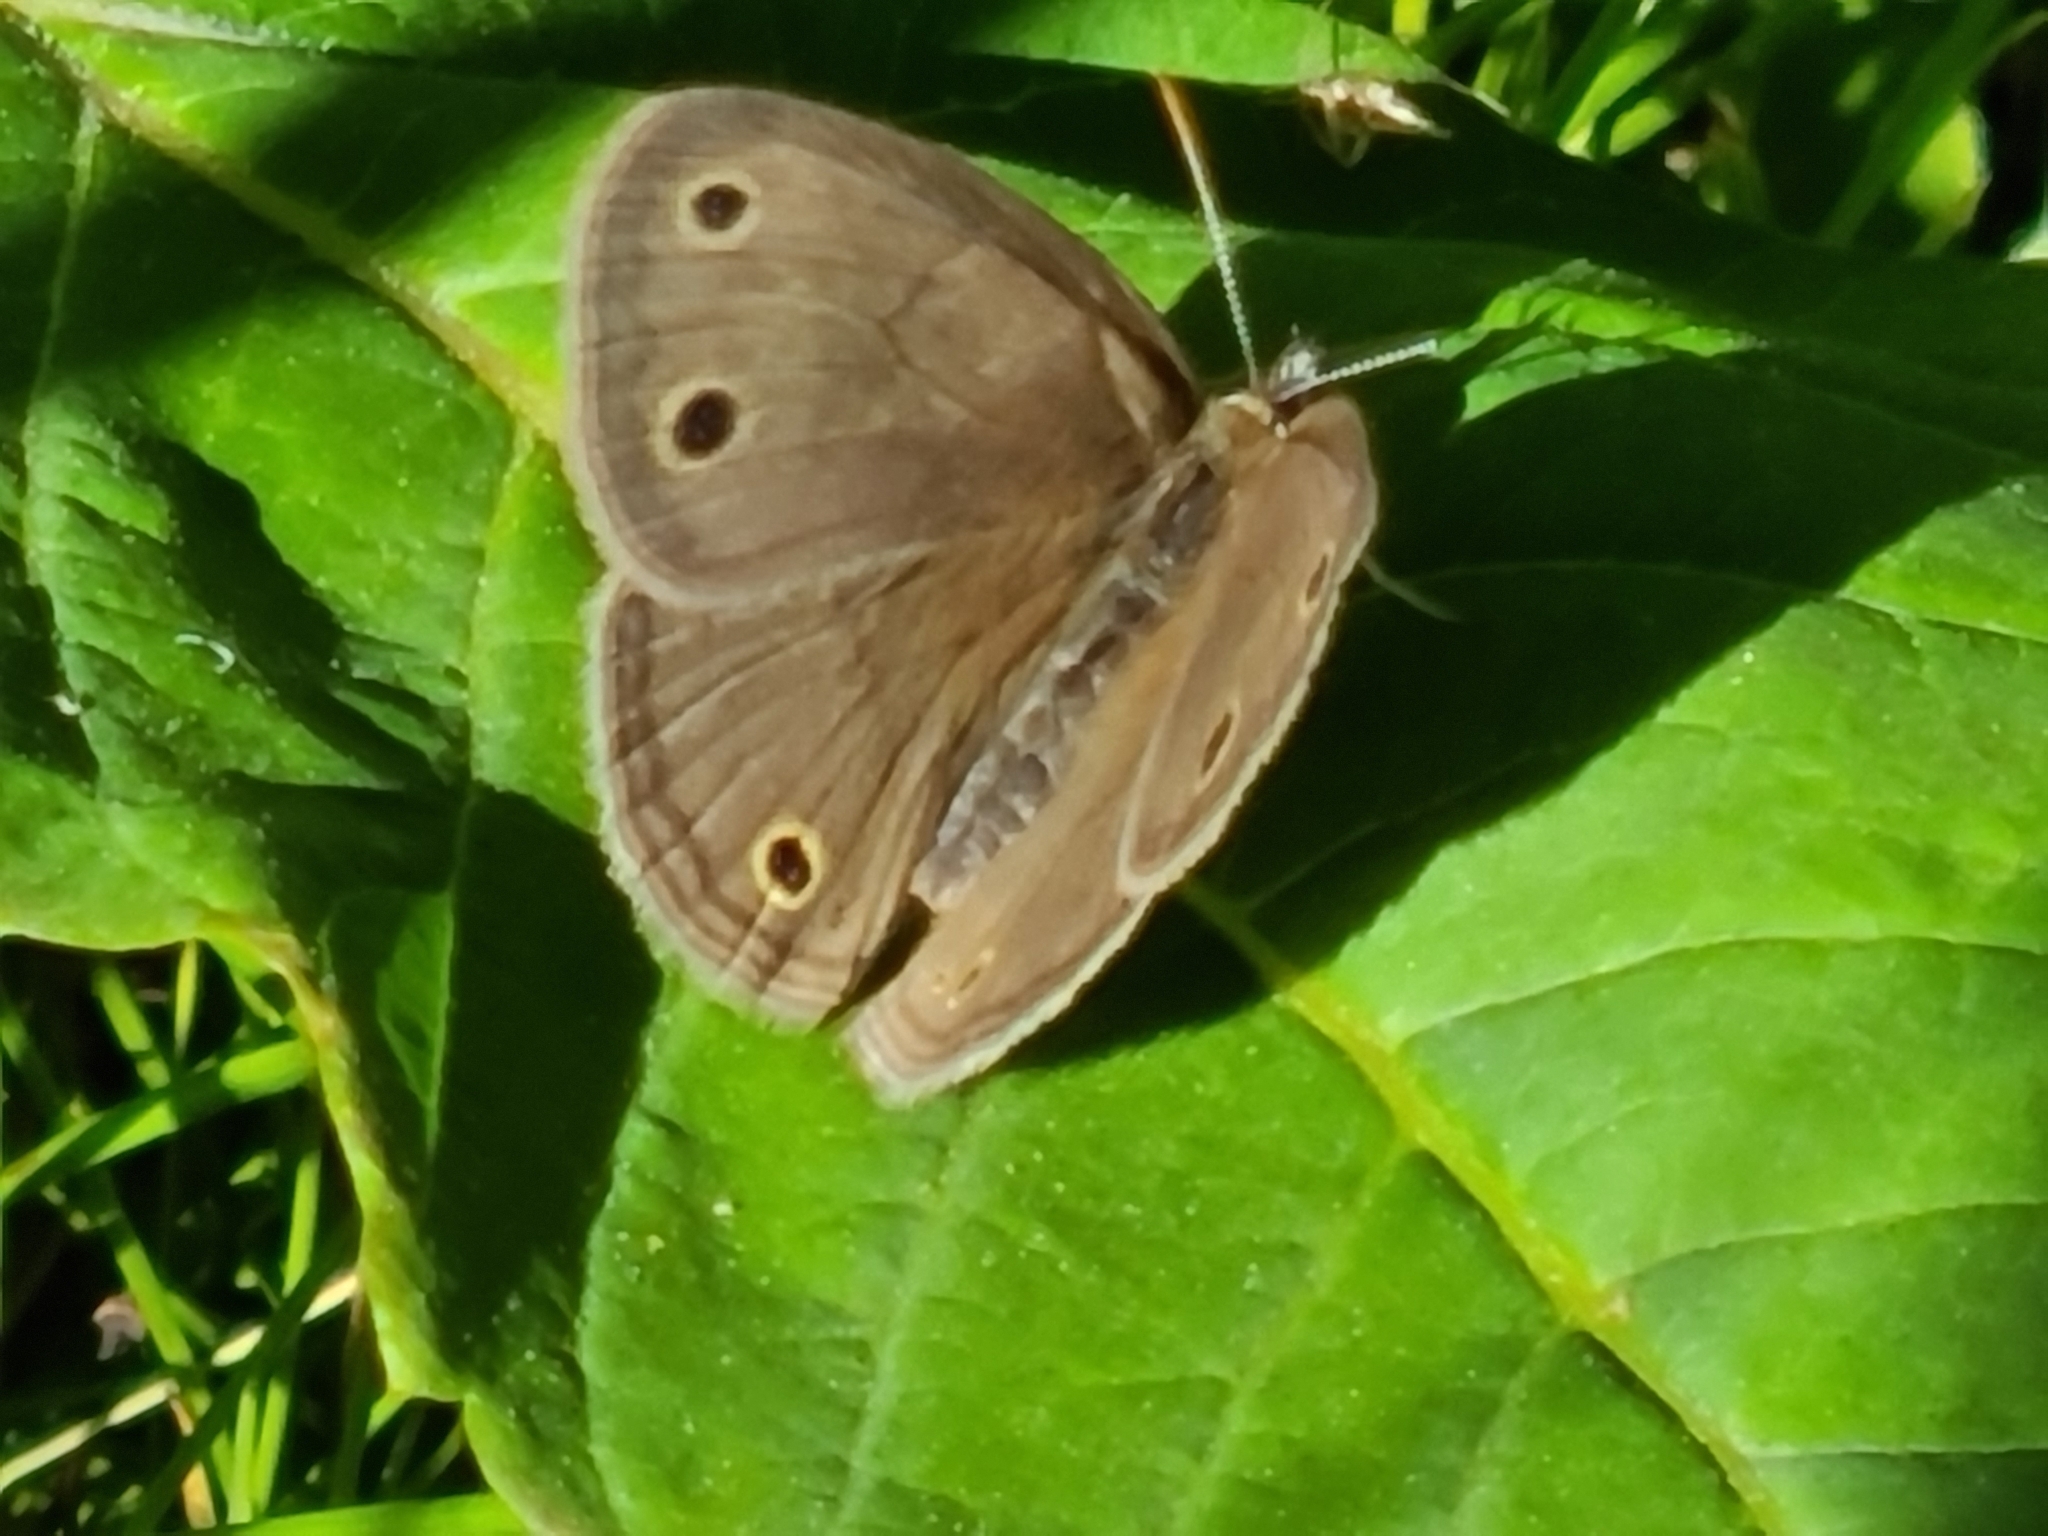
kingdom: Animalia
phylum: Arthropoda
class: Insecta
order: Lepidoptera
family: Nymphalidae
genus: Euptychia
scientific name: Euptychia cymela
